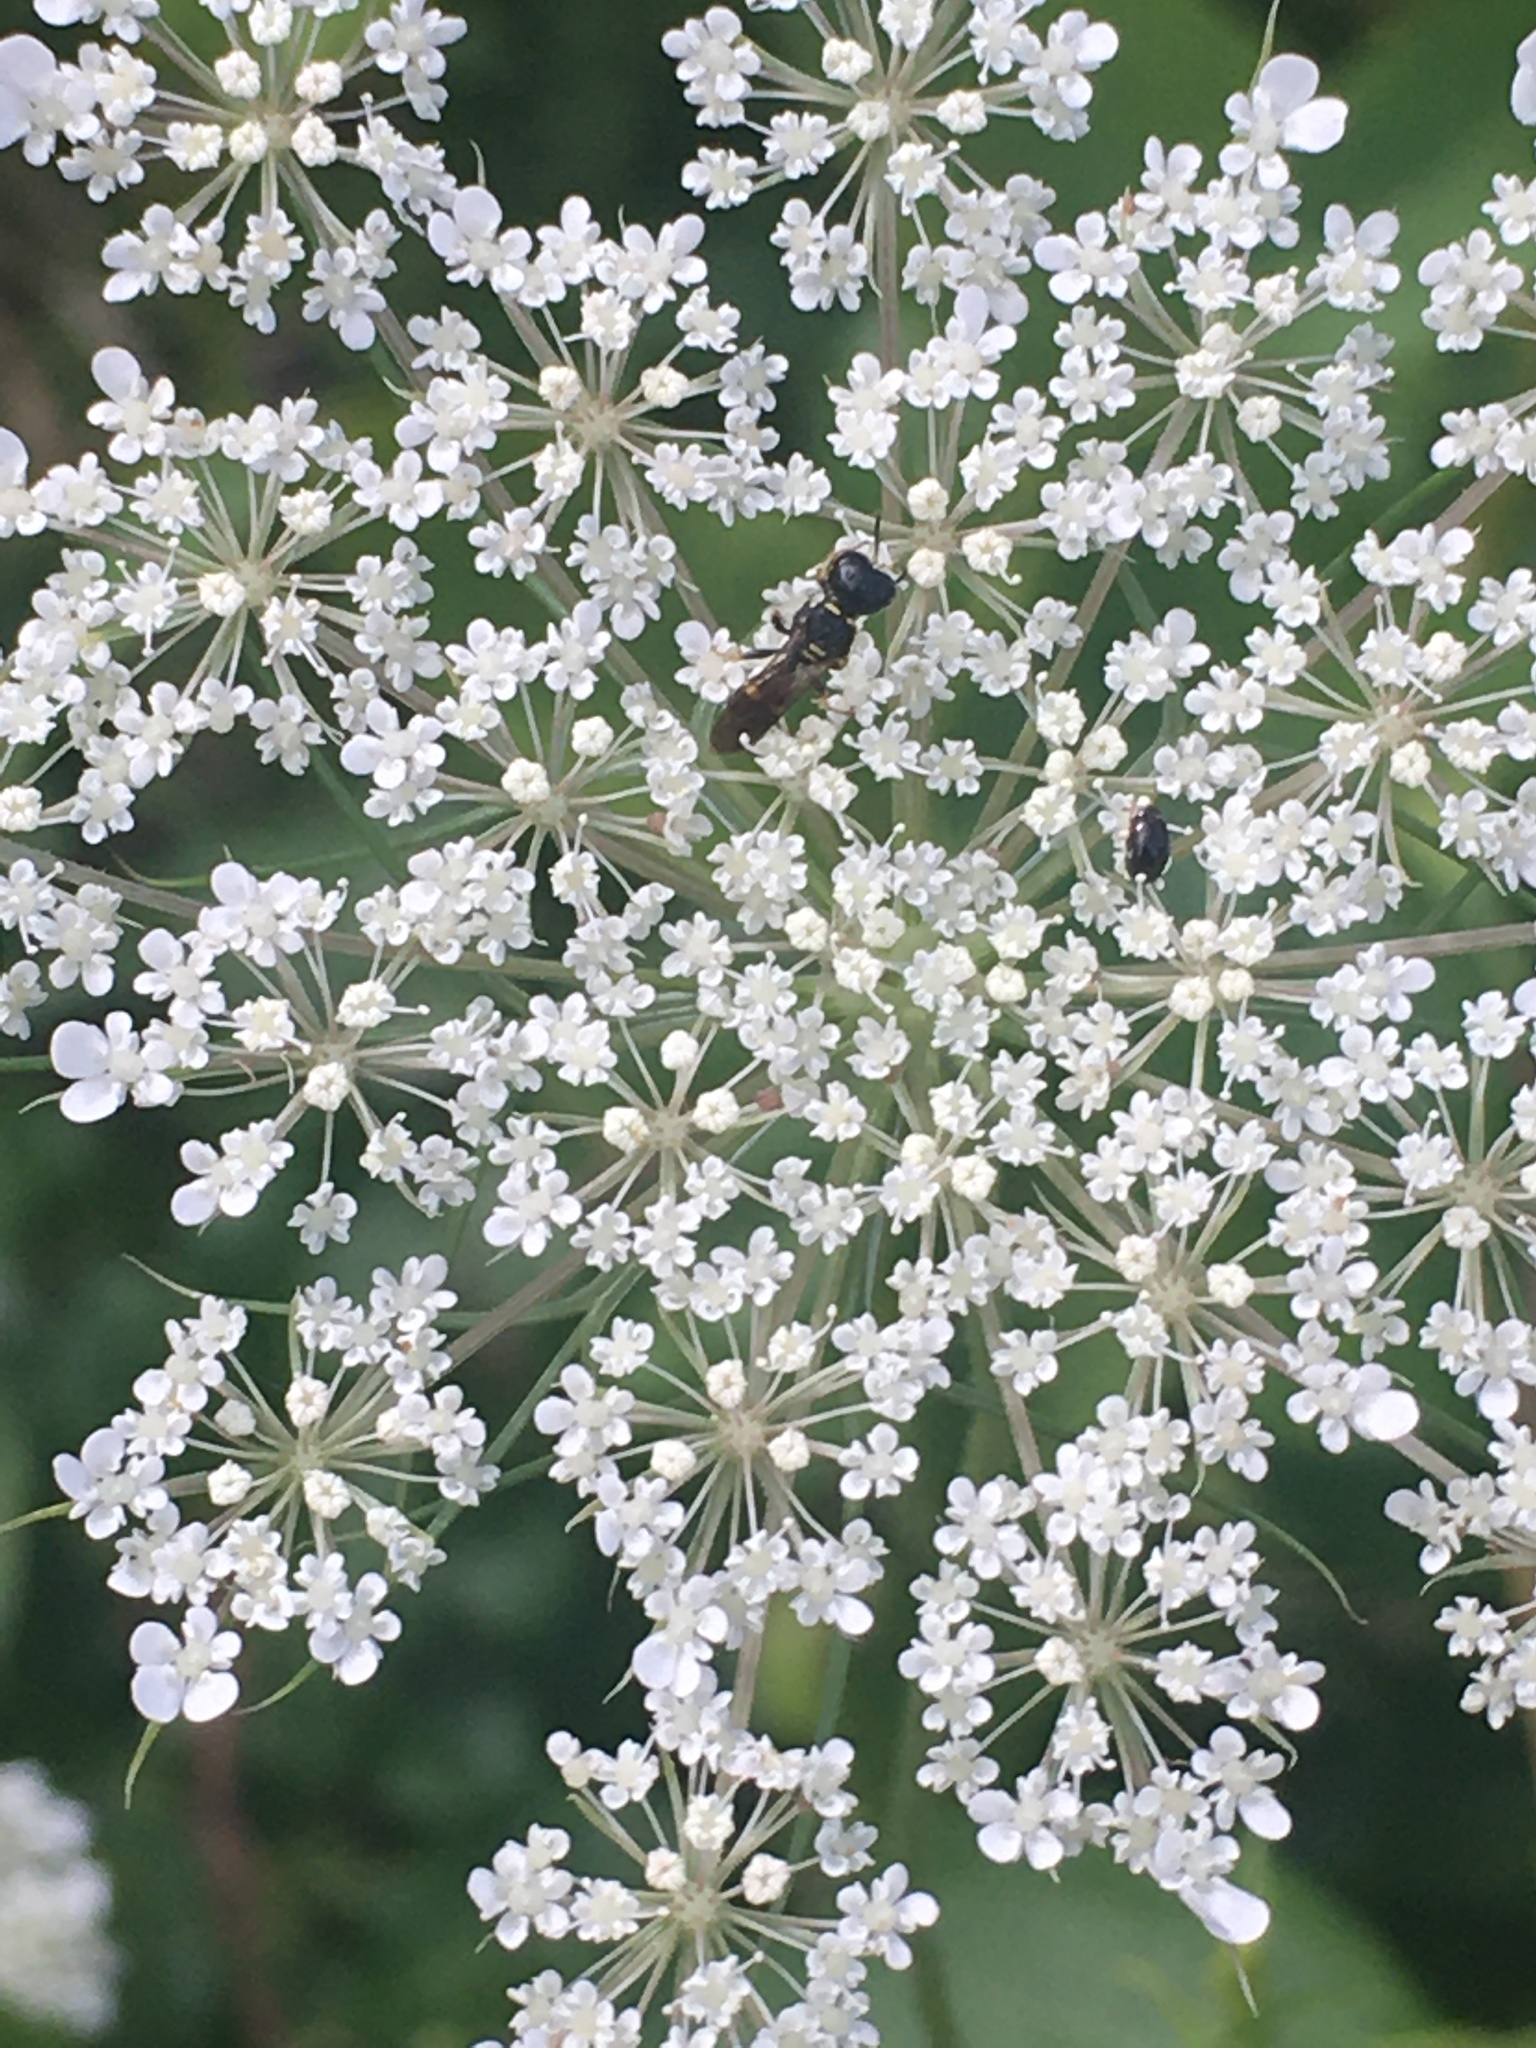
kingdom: Animalia
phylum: Arthropoda
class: Insecta
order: Hymenoptera
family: Crabronidae
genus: Ectemnius
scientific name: Ectemnius stirpicola
